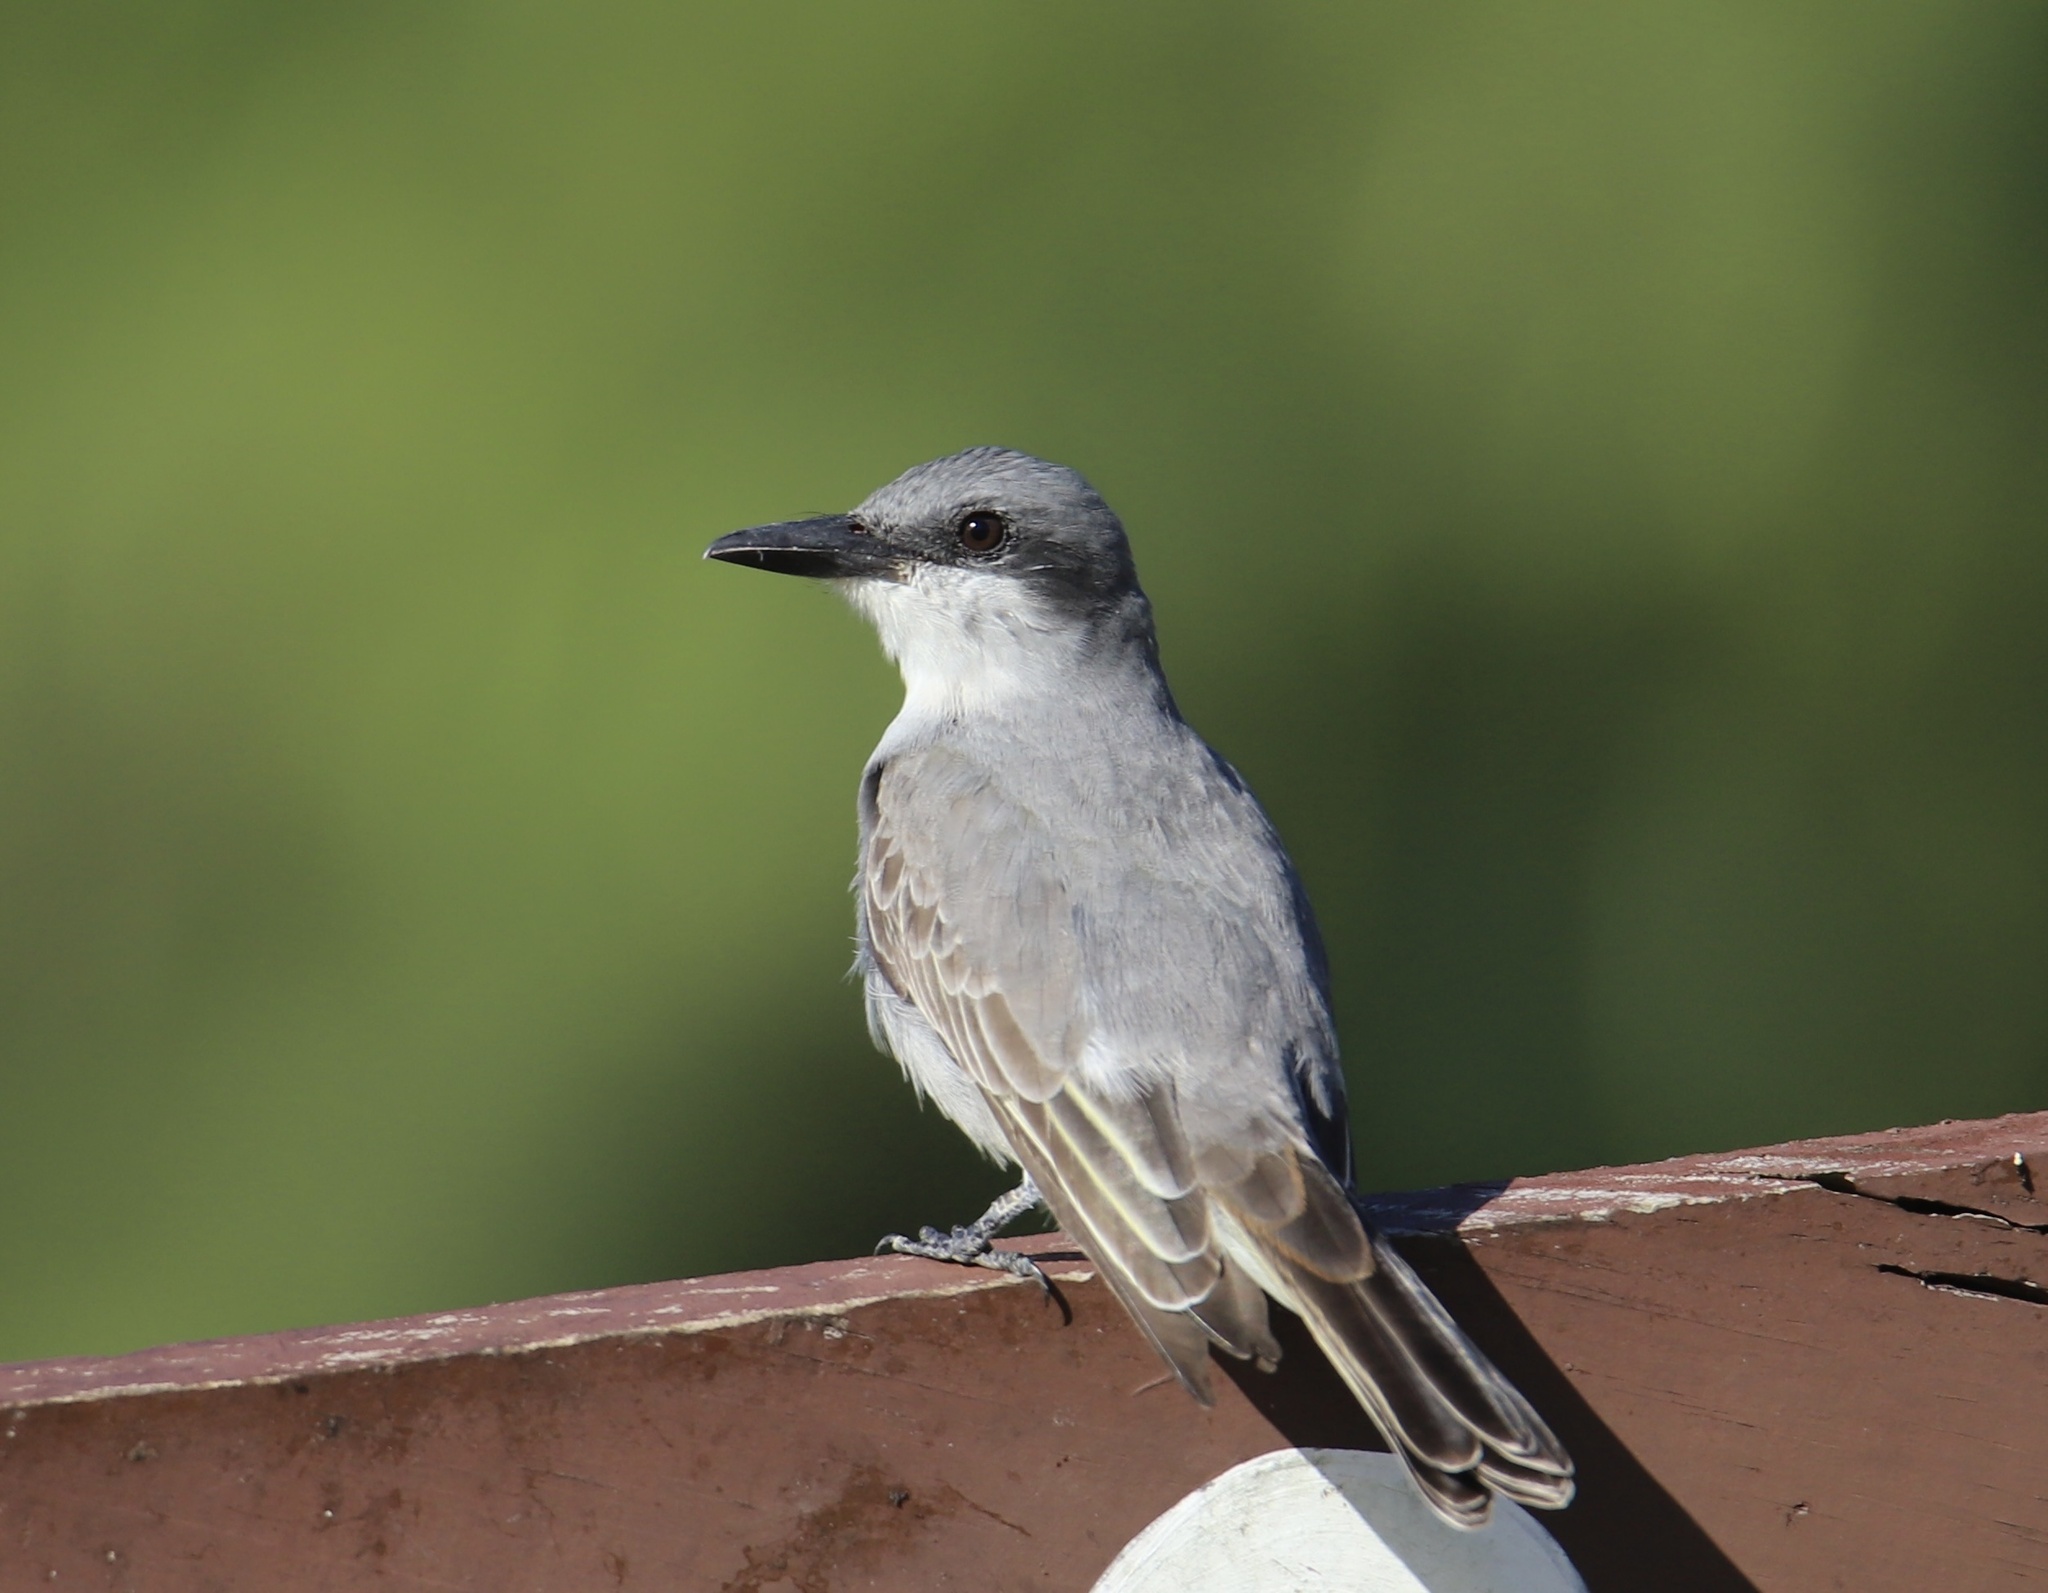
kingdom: Animalia
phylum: Chordata
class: Aves
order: Passeriformes
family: Tyrannidae
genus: Tyrannus
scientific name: Tyrannus dominicensis
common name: Gray kingbird
